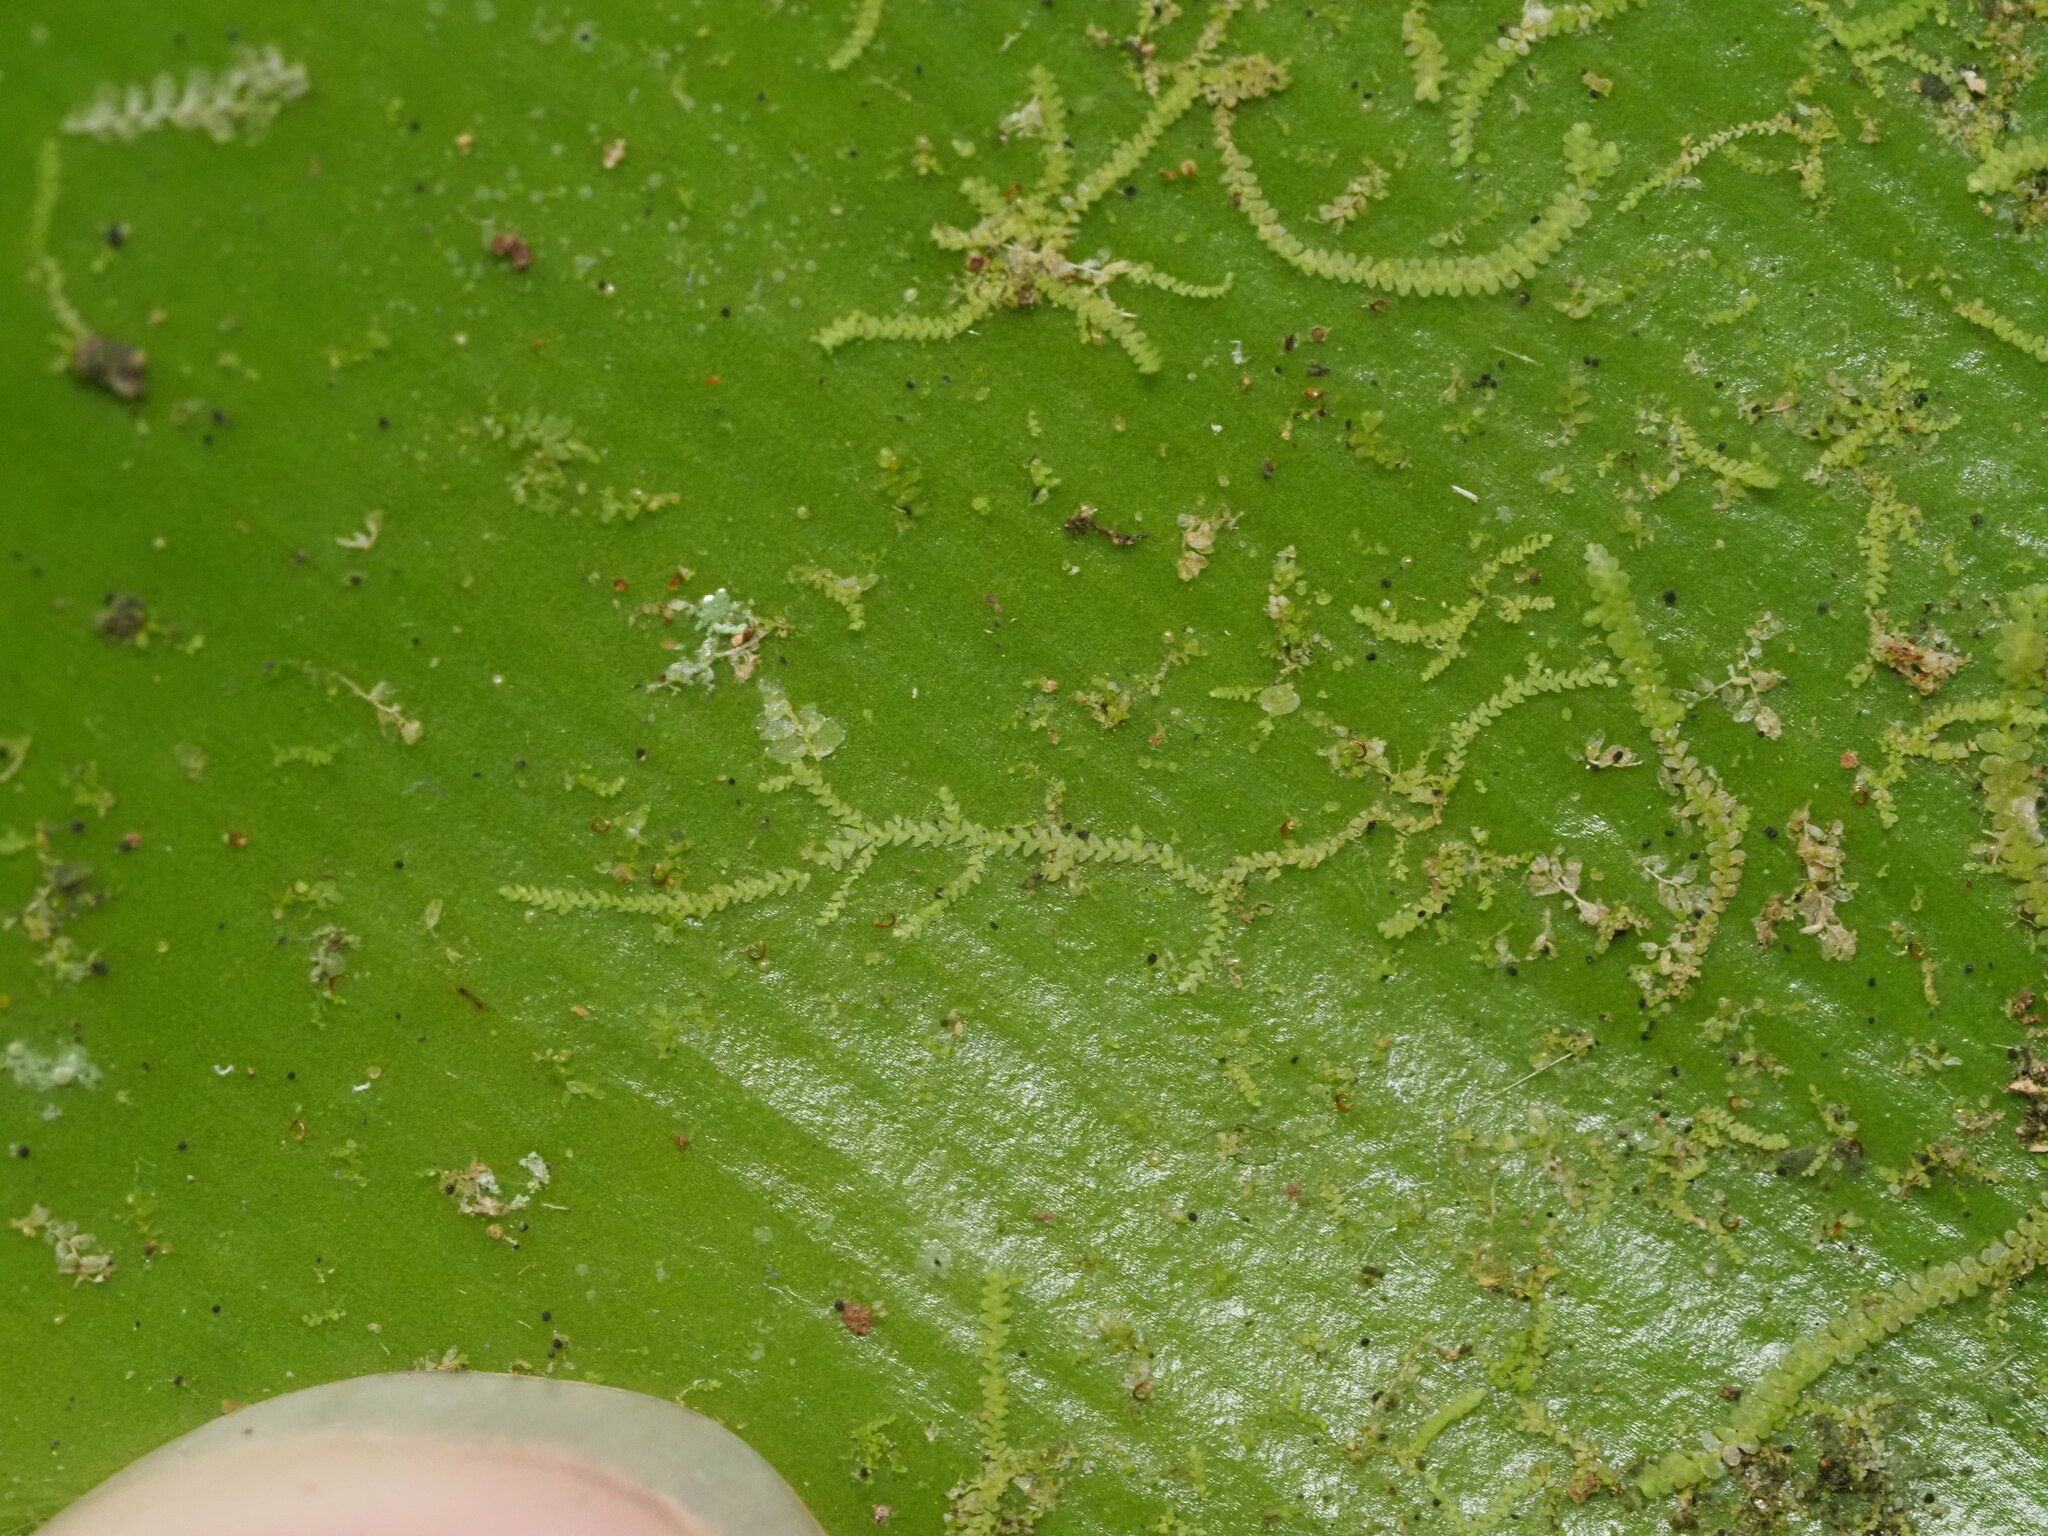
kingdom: Plantae
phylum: Marchantiophyta
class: Jungermanniopsida
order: Porellales
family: Lejeuneaceae
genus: Lejeunea
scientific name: Lejeunea laetevirens
